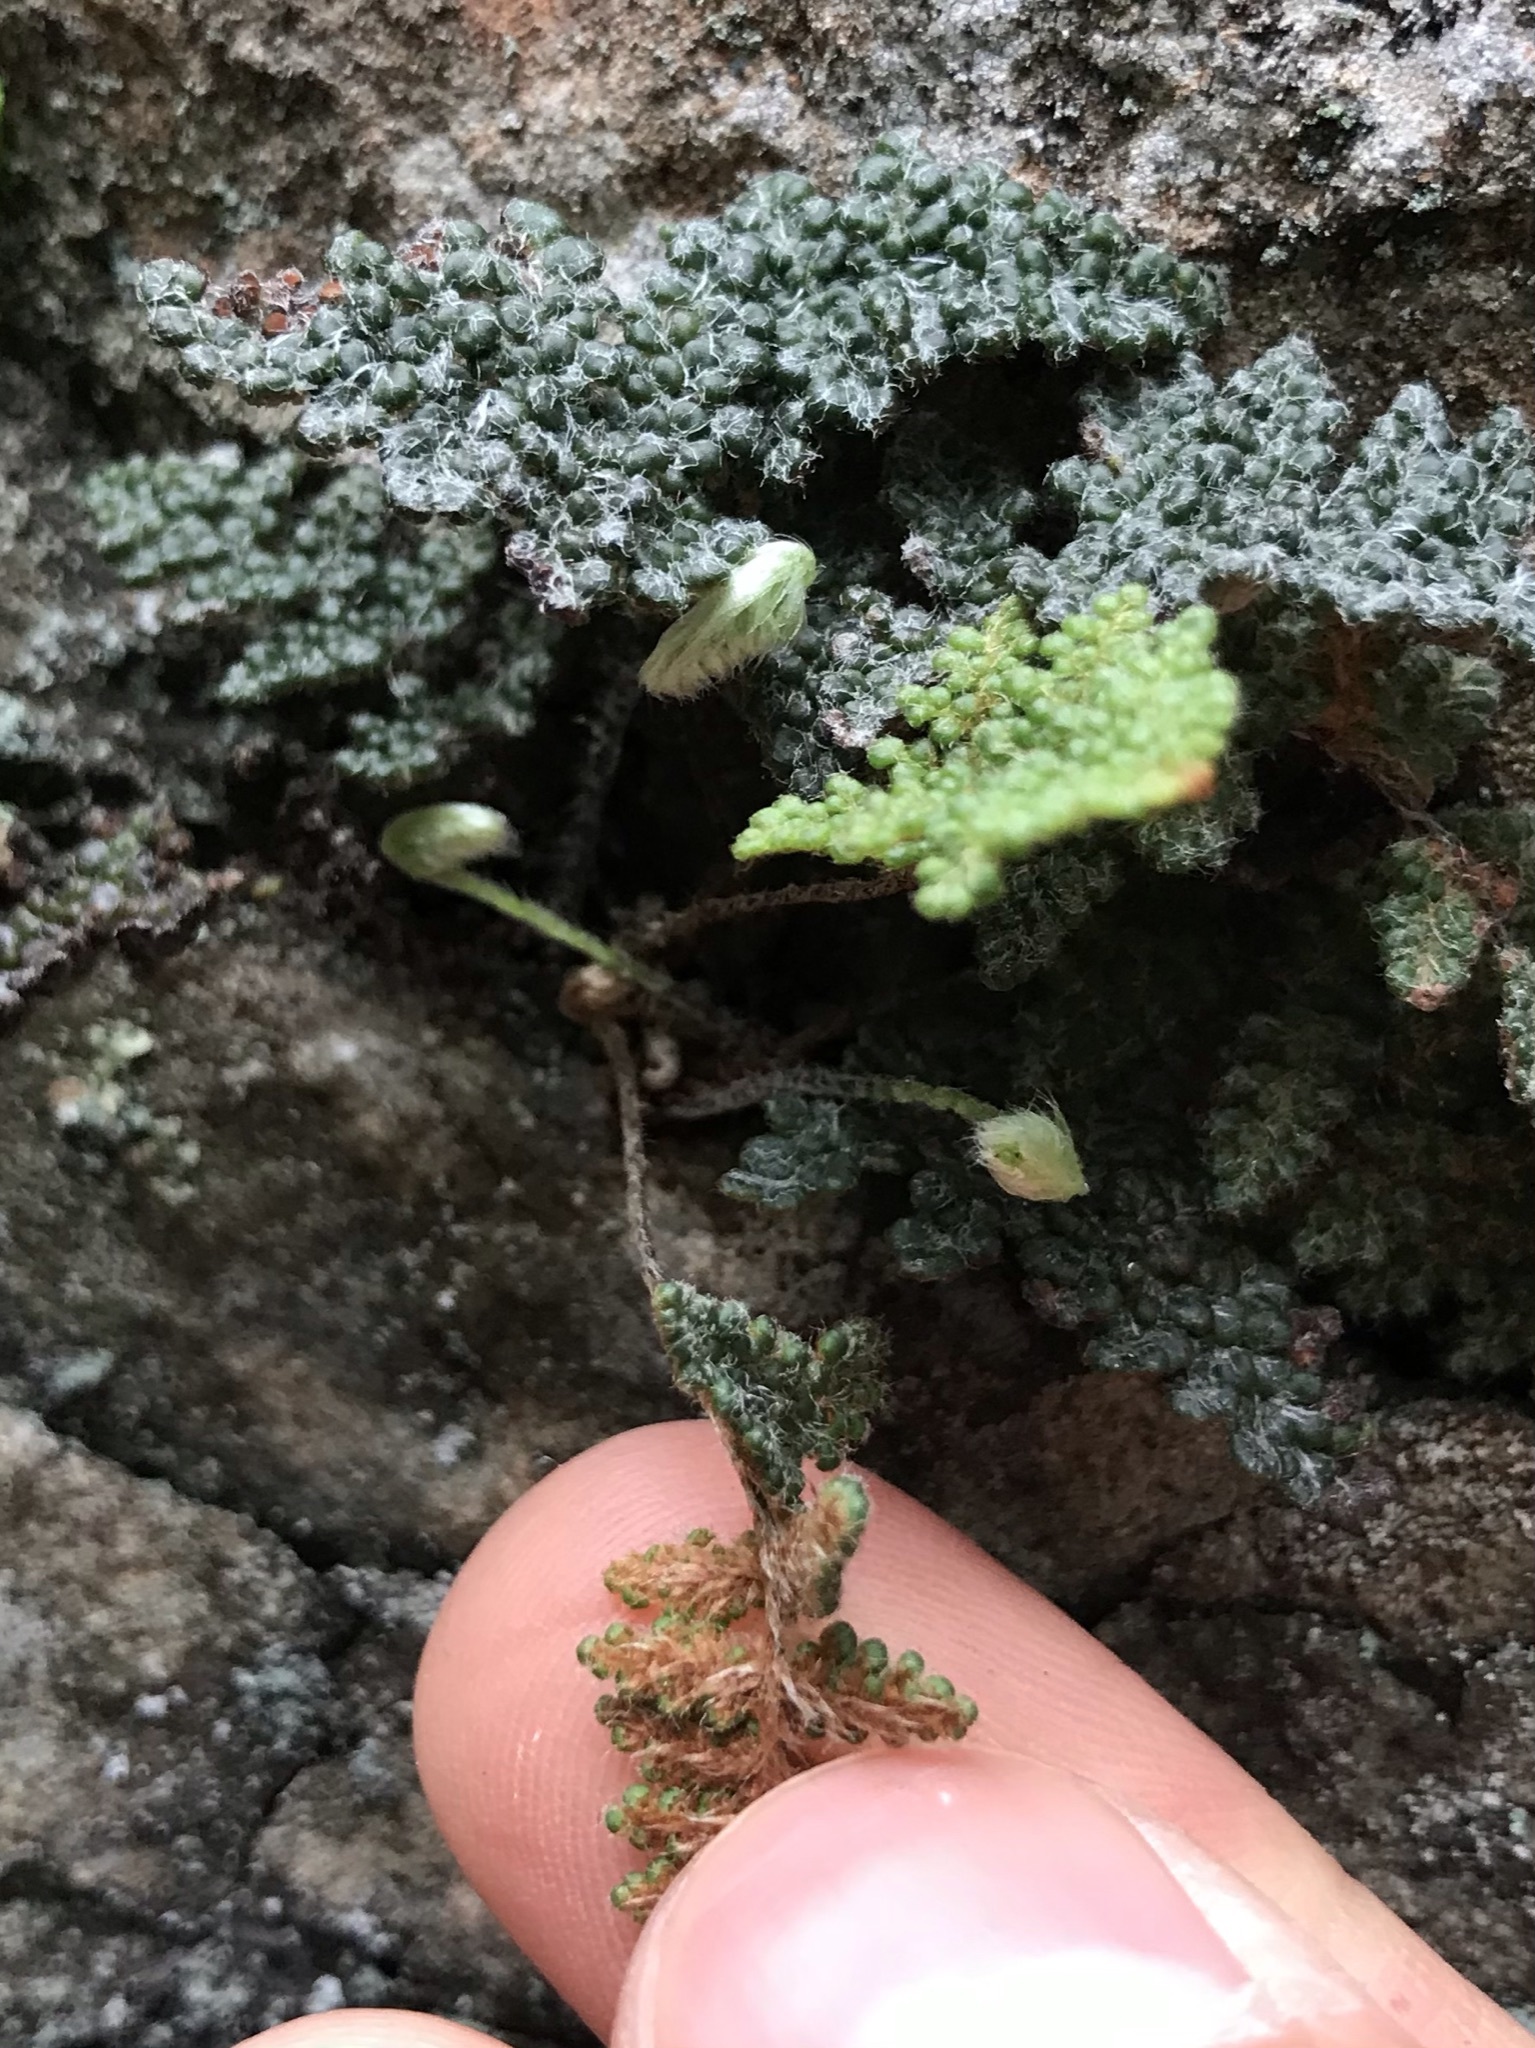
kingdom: Plantae
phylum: Tracheophyta
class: Polypodiopsida
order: Polypodiales
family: Pteridaceae
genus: Myriopteris
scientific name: Myriopteris intertexta
